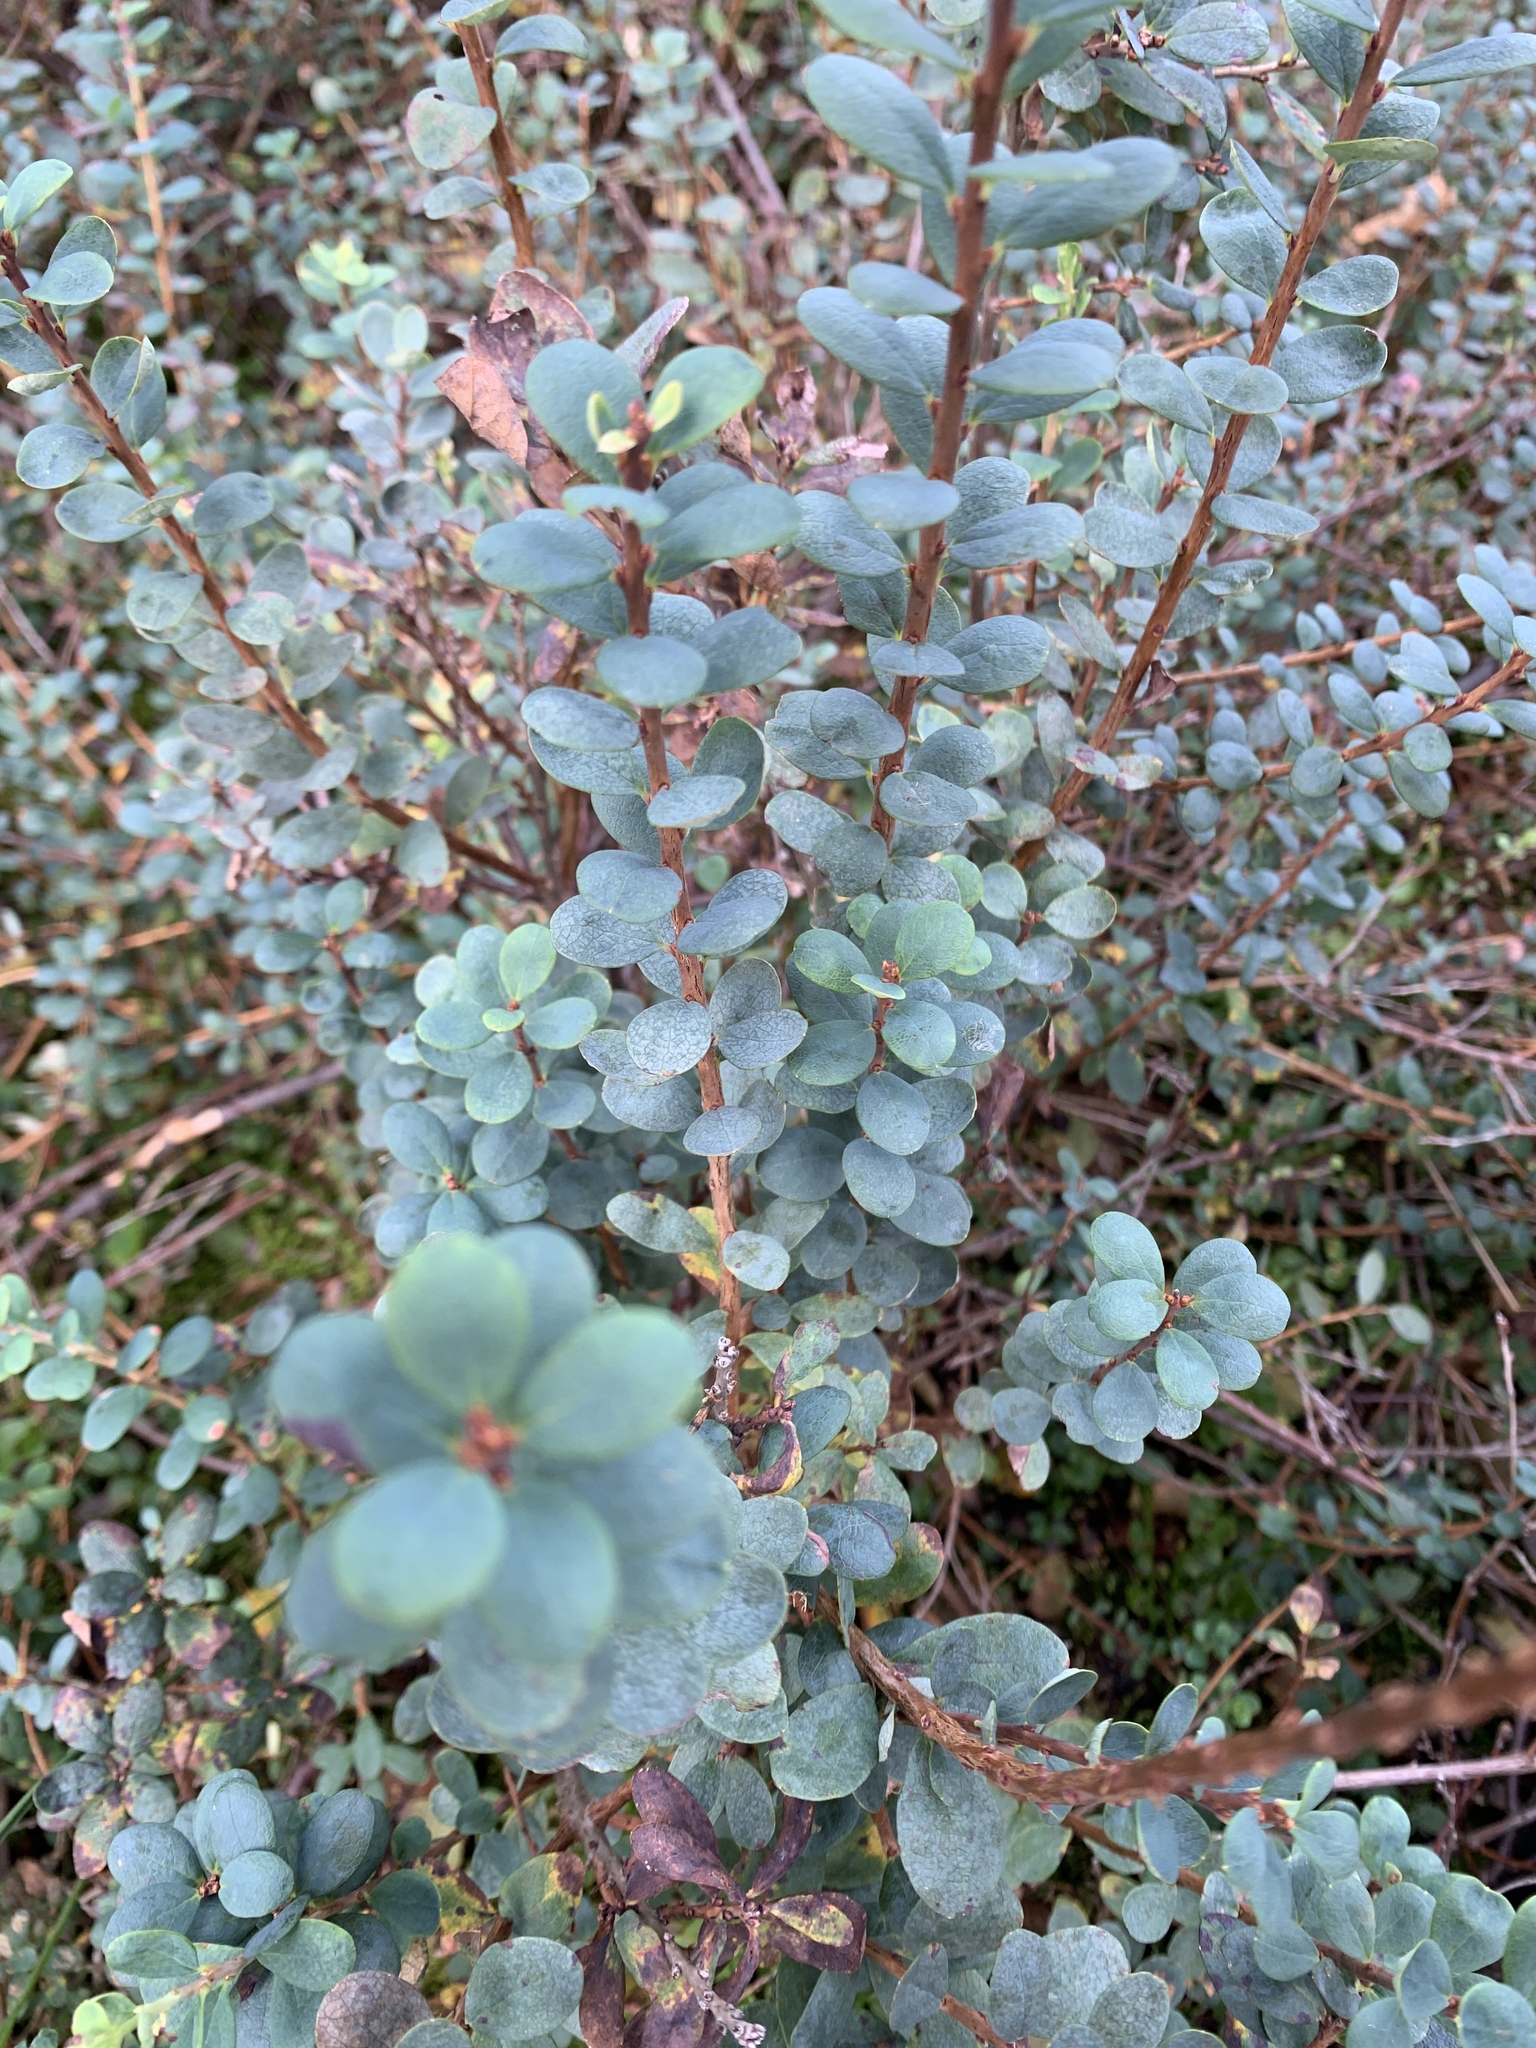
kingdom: Plantae
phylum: Tracheophyta
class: Magnoliopsida
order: Ericales
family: Ericaceae
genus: Vaccinium
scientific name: Vaccinium uliginosum
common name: Bog bilberry
